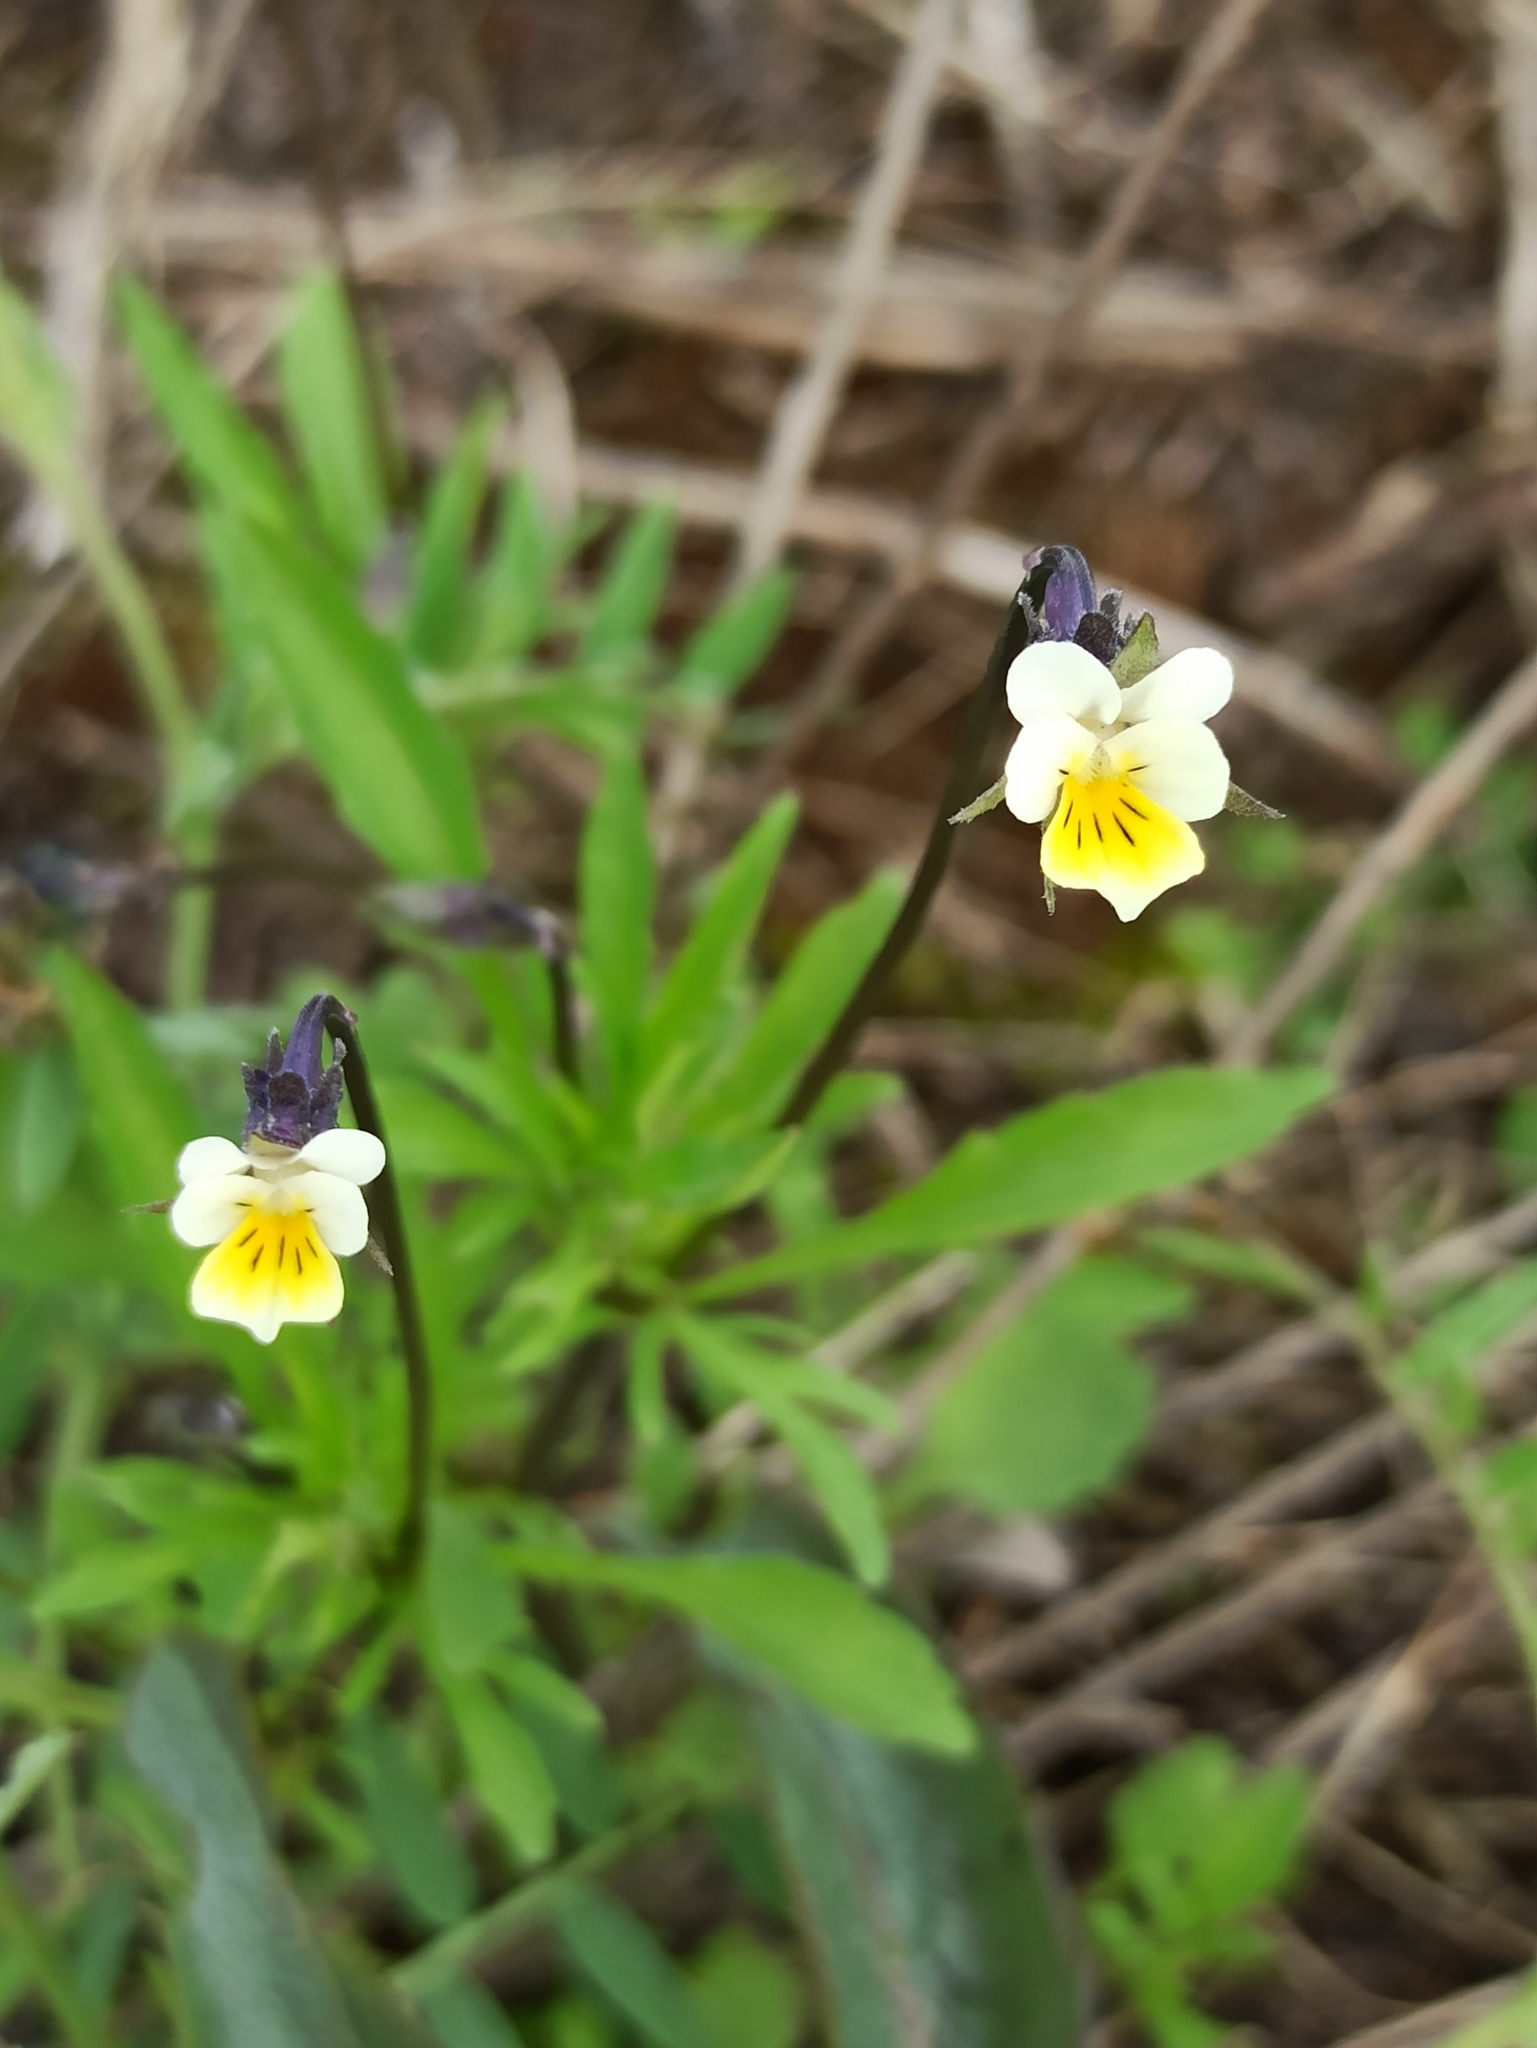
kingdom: Plantae
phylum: Tracheophyta
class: Magnoliopsida
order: Malpighiales
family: Violaceae
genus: Viola
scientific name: Viola arvensis
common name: Field pansy
